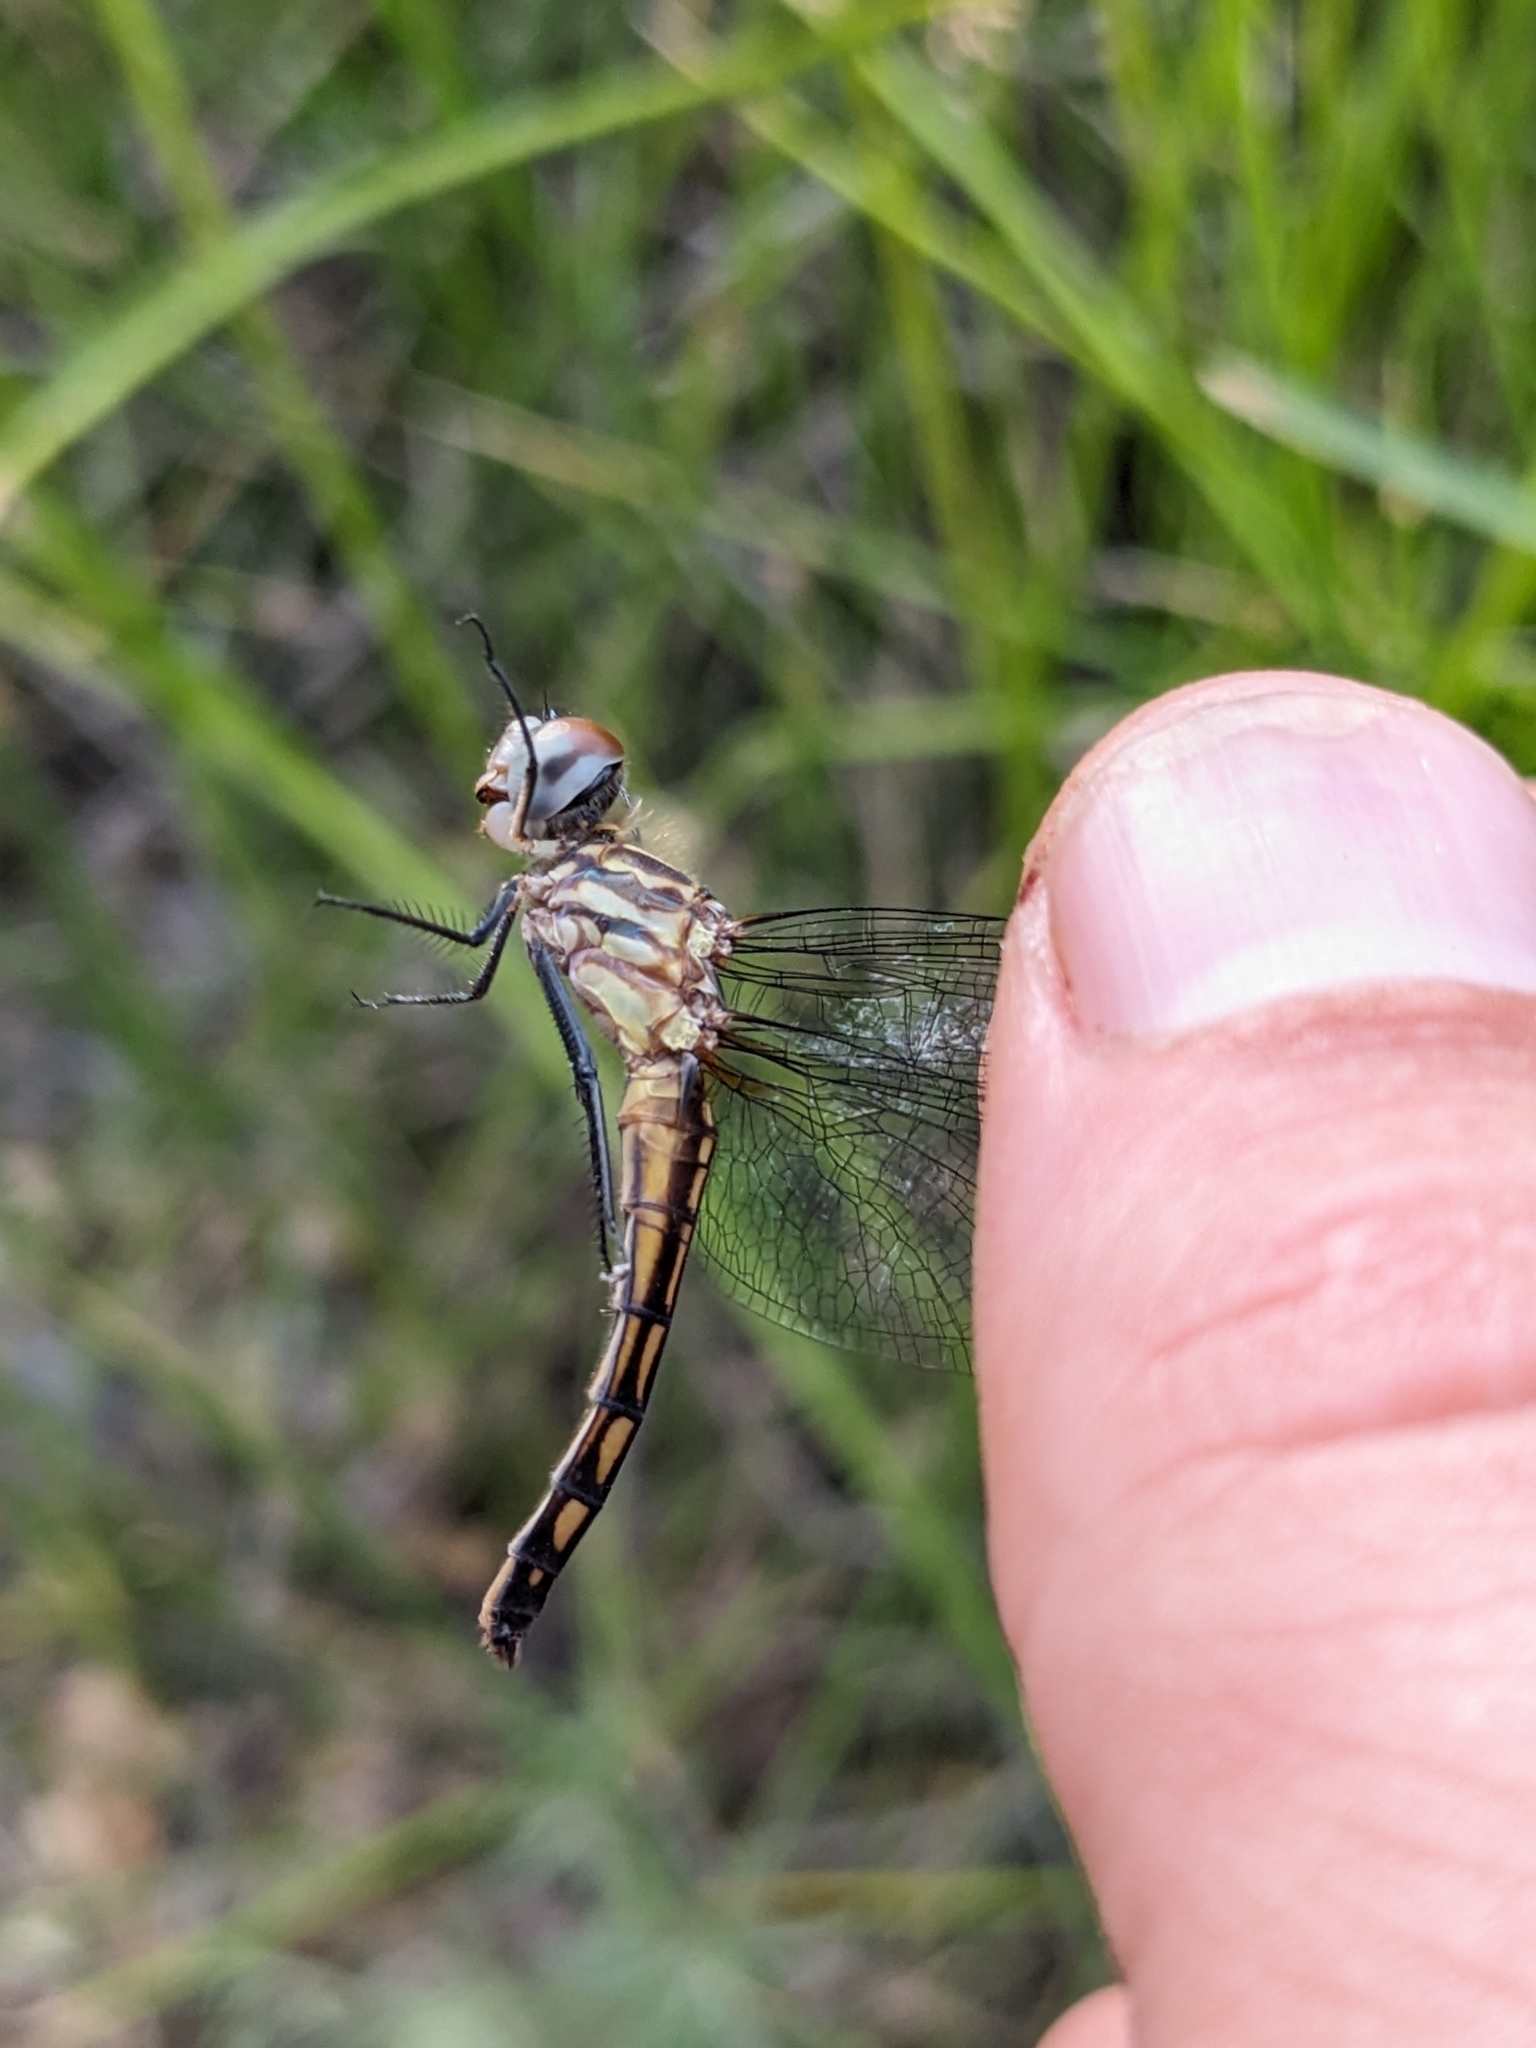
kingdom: Animalia
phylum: Arthropoda
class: Insecta
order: Odonata
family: Libellulidae
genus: Pachydiplax
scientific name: Pachydiplax longipennis
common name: Blue dasher
